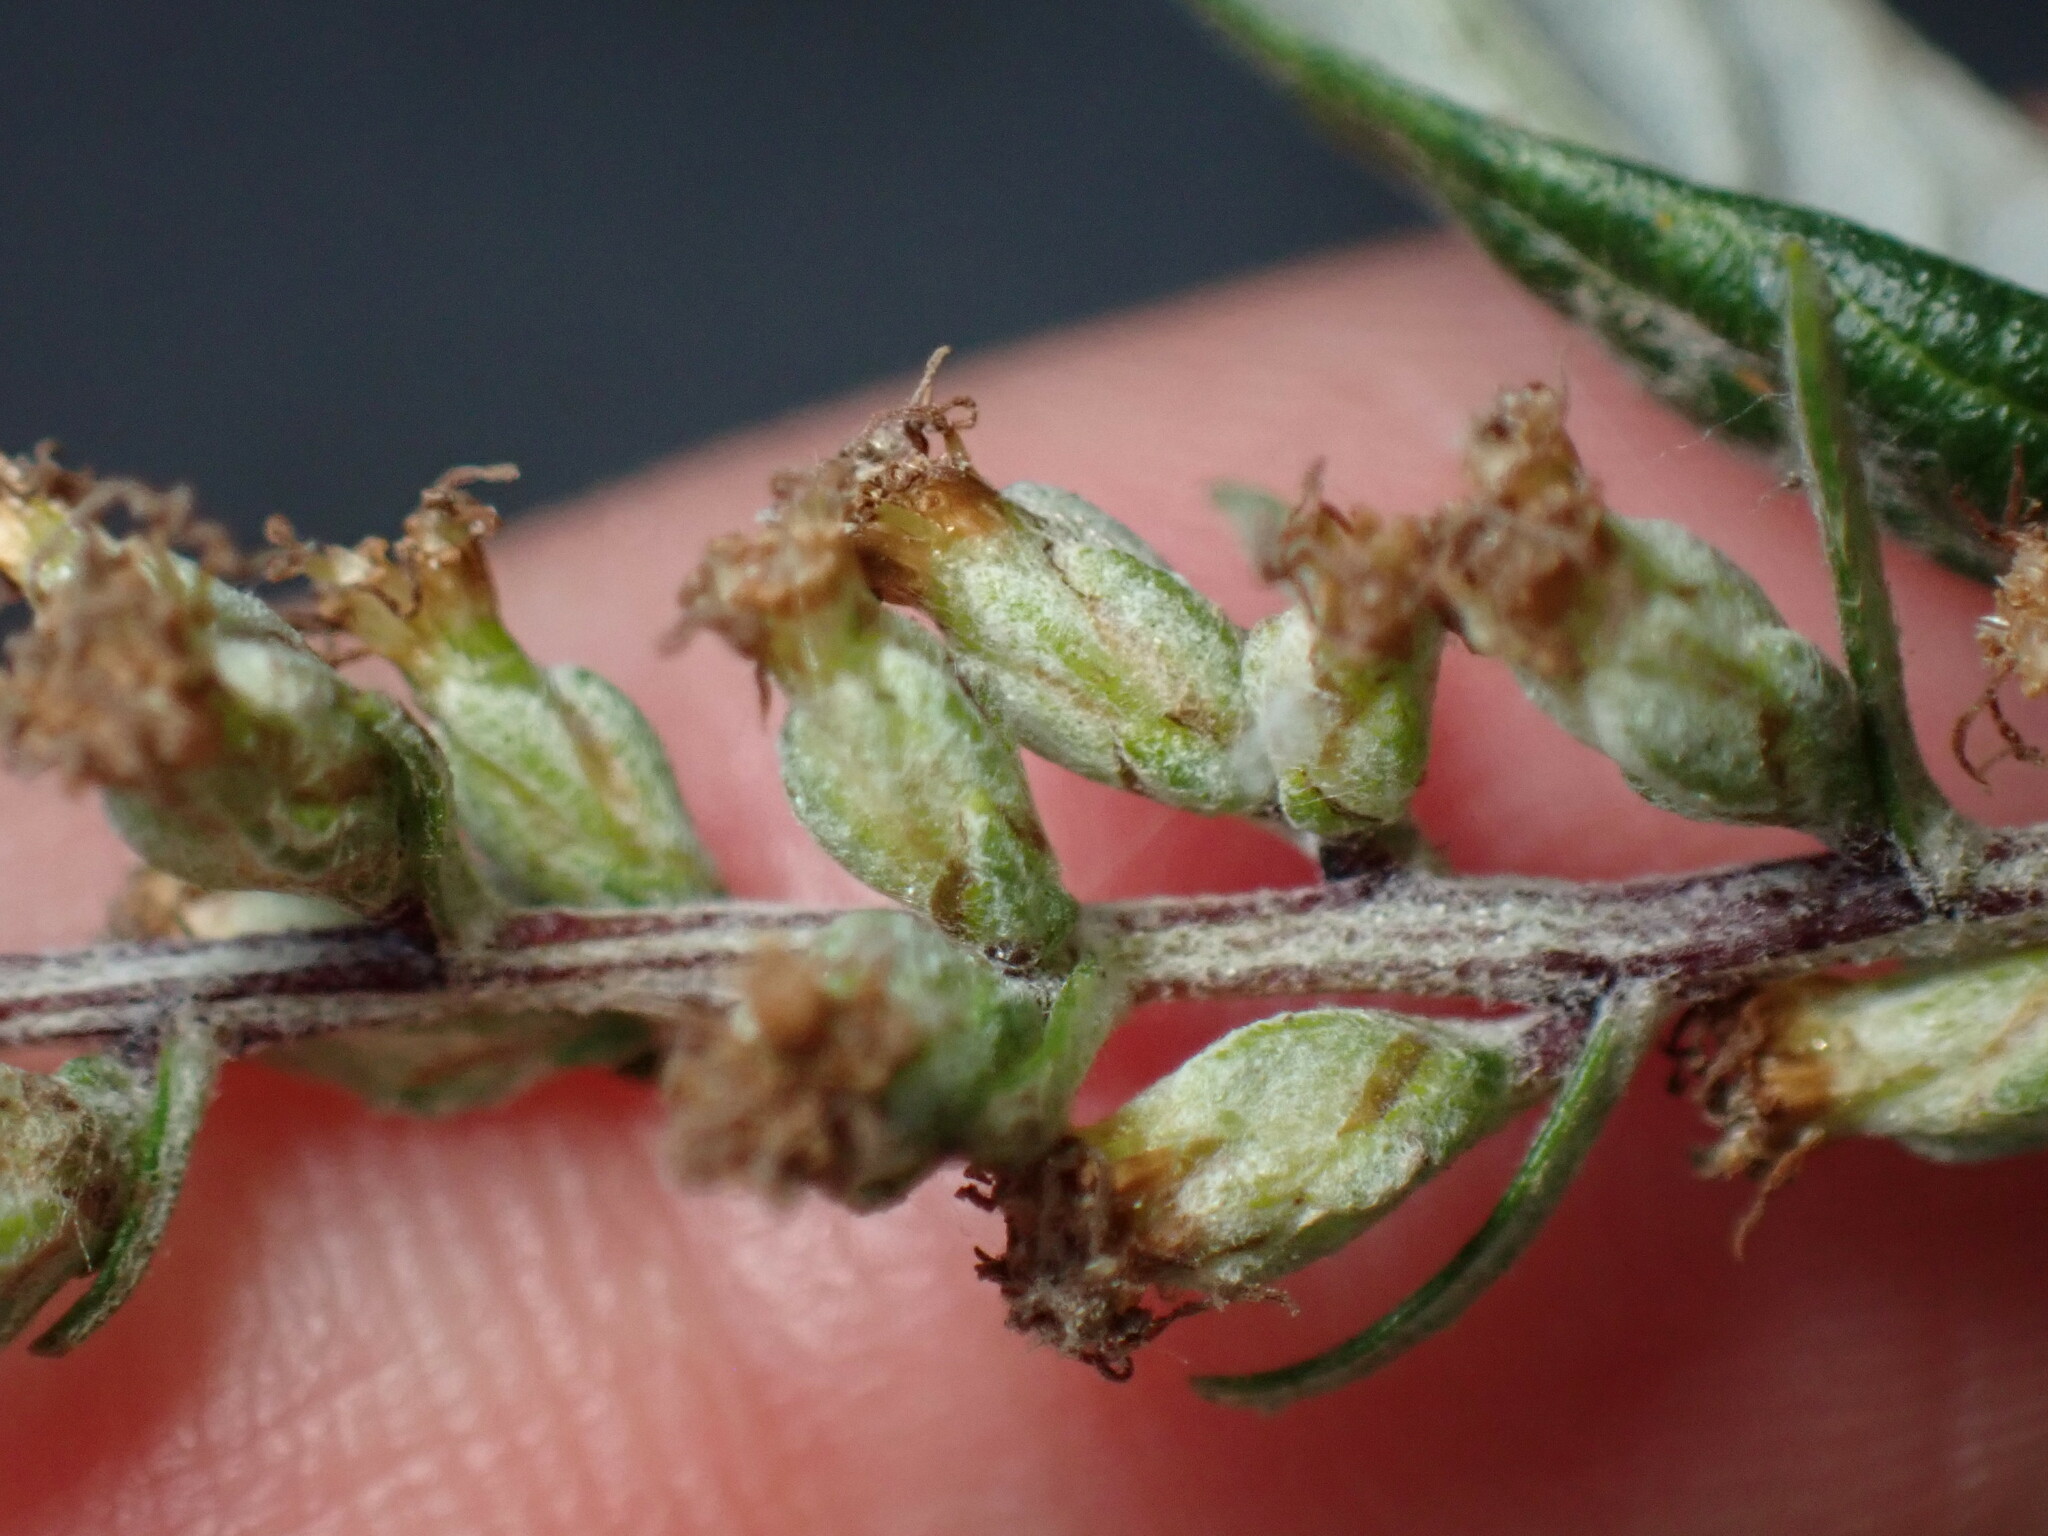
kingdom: Plantae
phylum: Tracheophyta
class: Magnoliopsida
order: Asterales
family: Asteraceae
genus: Artemisia
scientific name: Artemisia douglasiana
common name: Northwest mugwort
